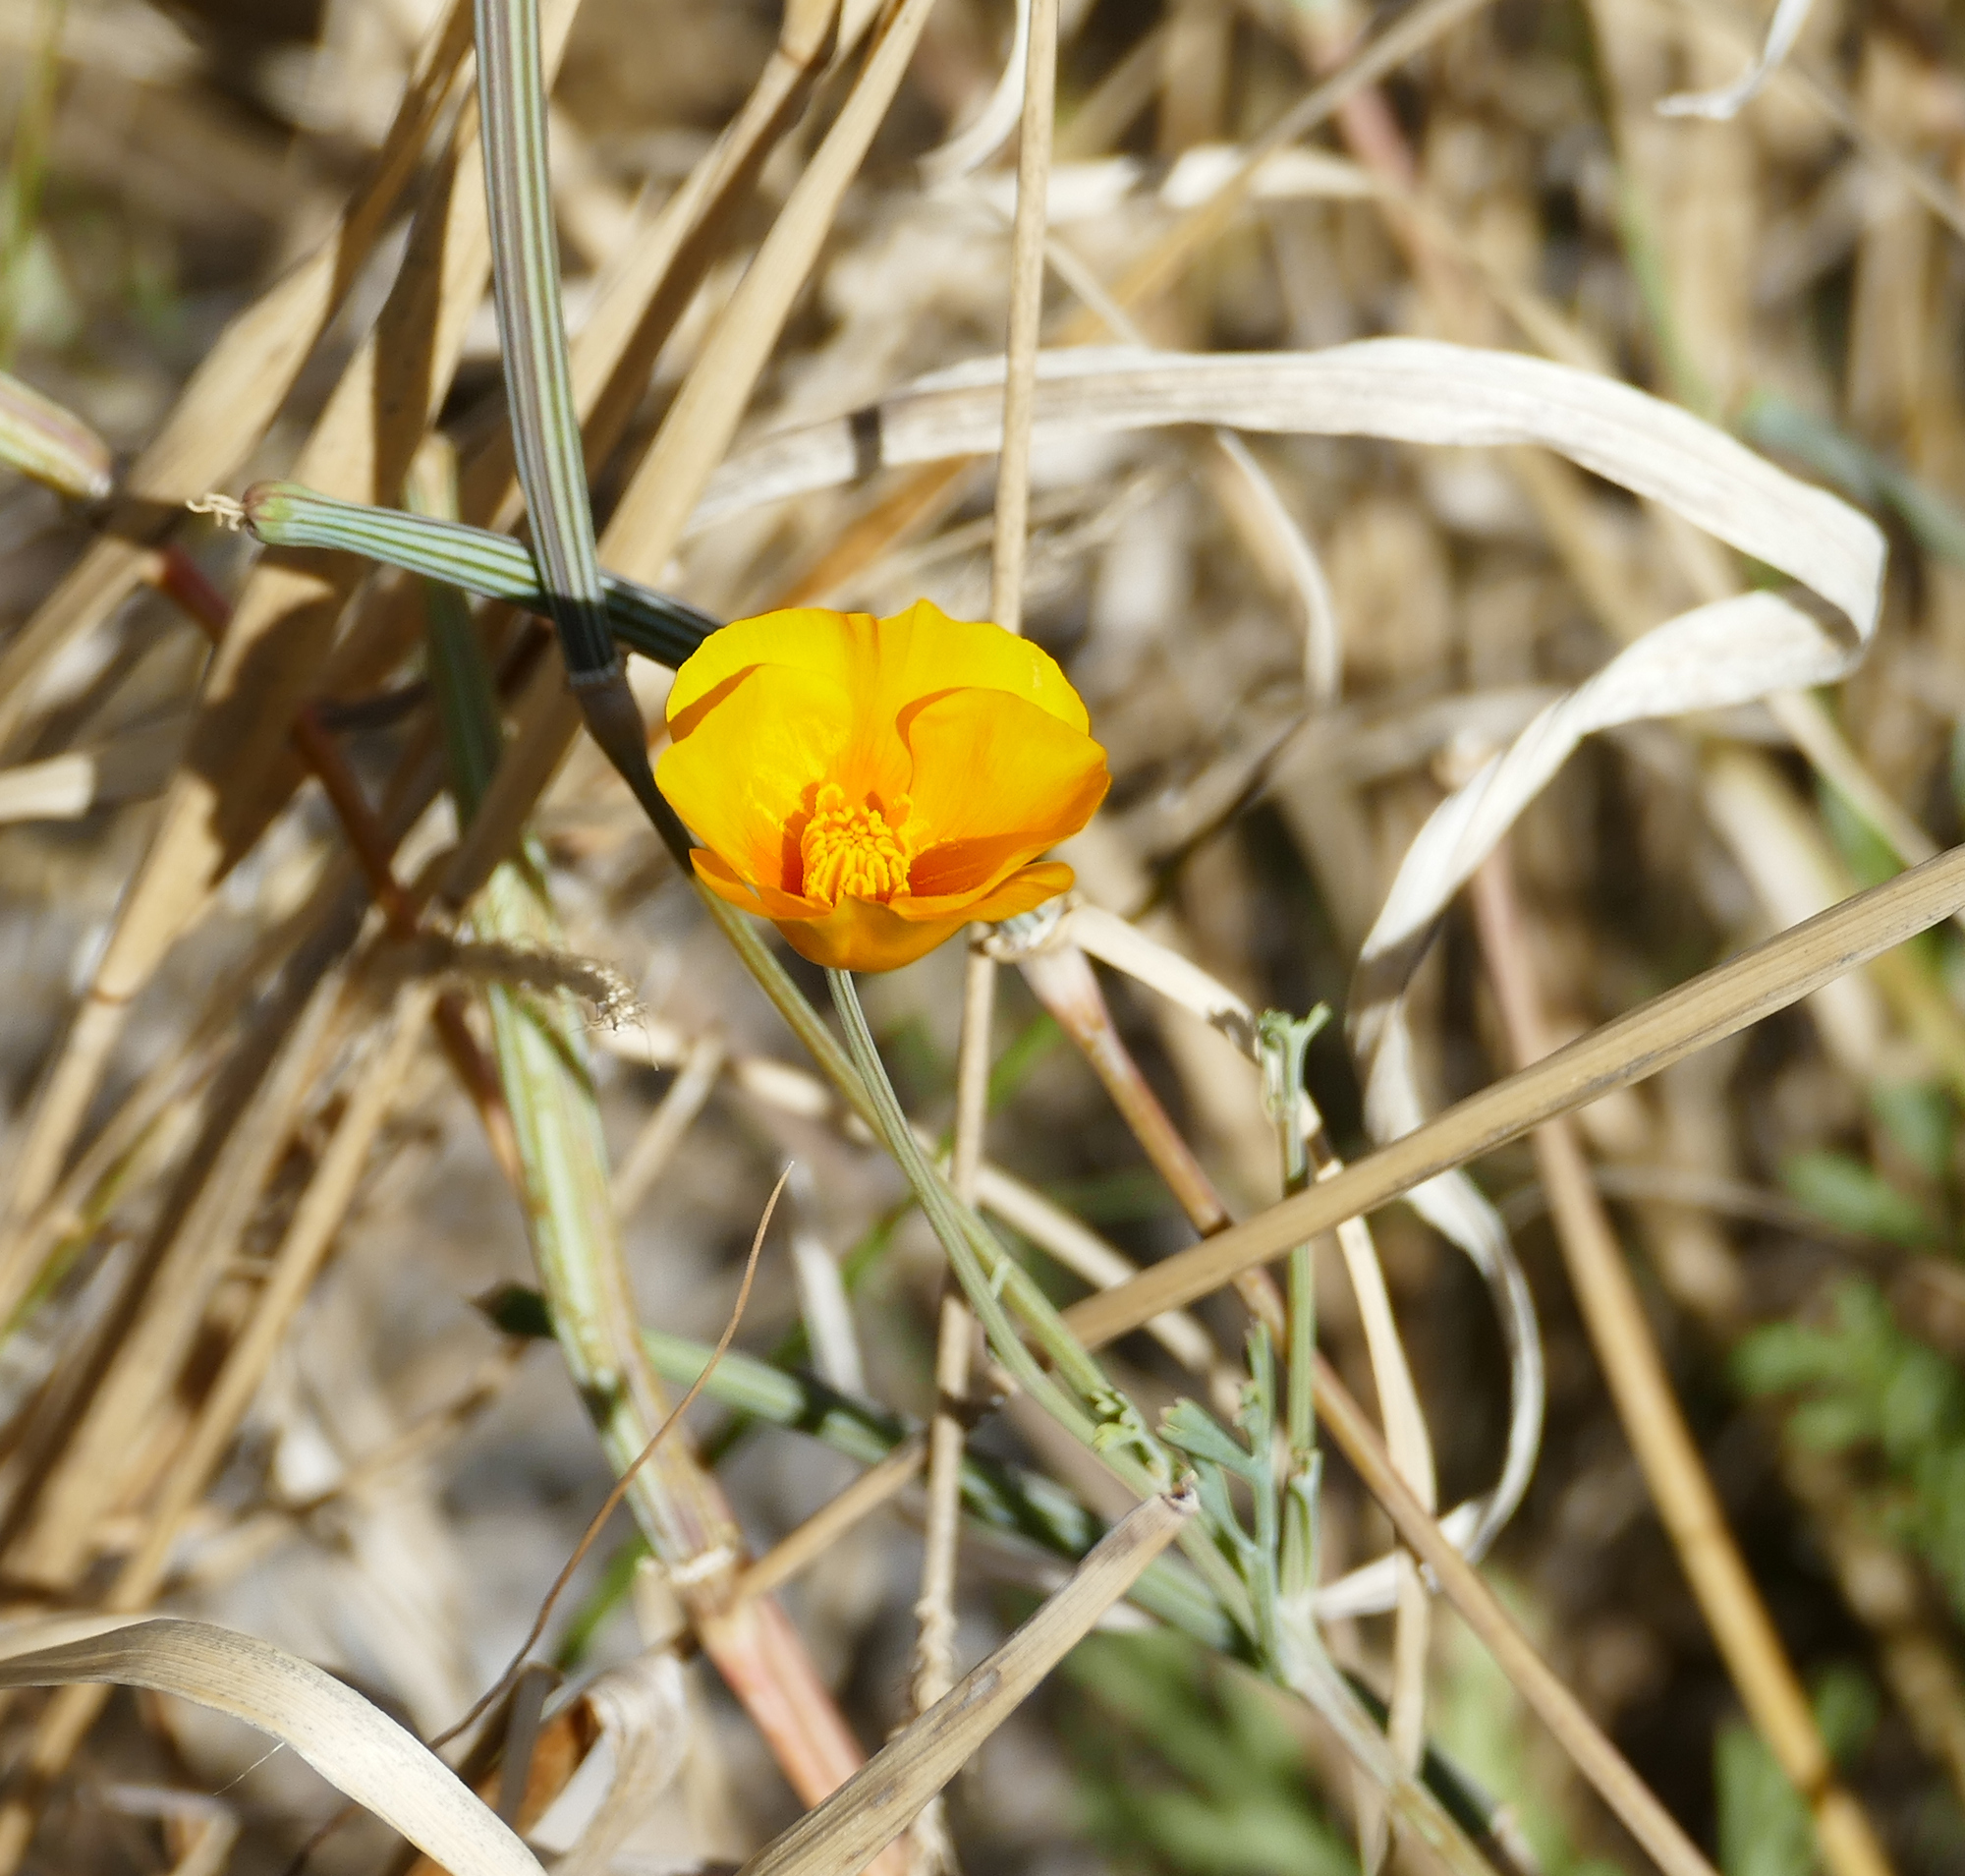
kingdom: Plantae
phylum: Tracheophyta
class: Magnoliopsida
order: Ranunculales
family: Papaveraceae
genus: Eschscholzia
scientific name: Eschscholzia californica
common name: California poppy
